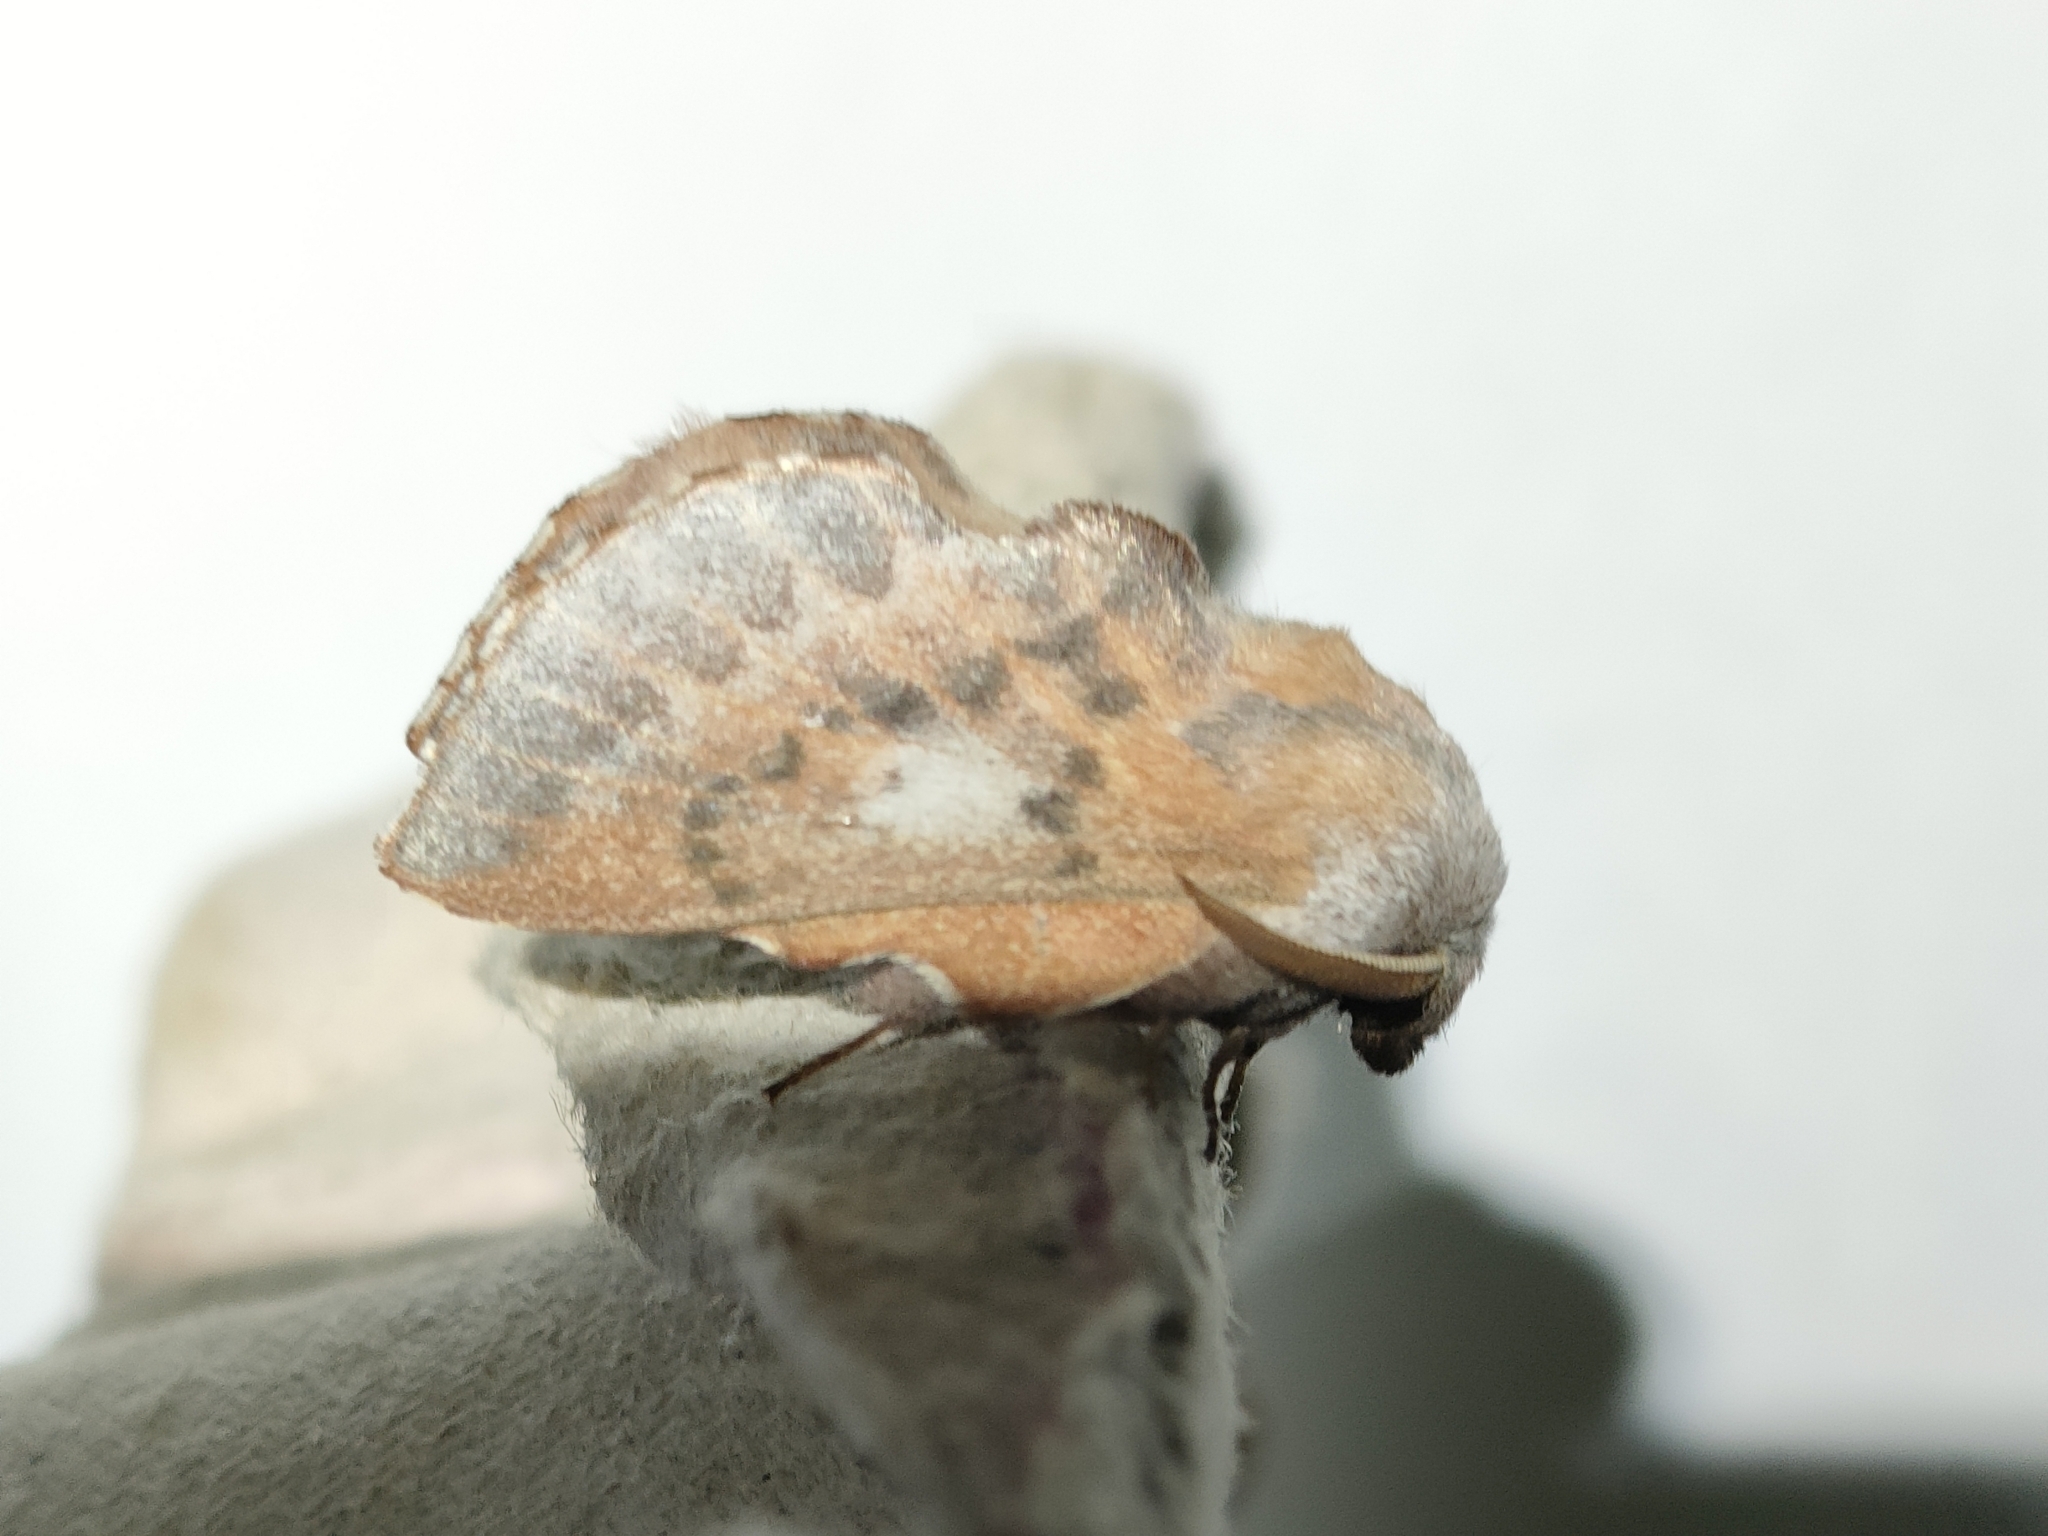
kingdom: Animalia
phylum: Arthropoda
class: Insecta
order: Lepidoptera
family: Lasiocampidae
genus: Phyllodesma
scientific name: Phyllodesma ilicifolia
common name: Small lappet
